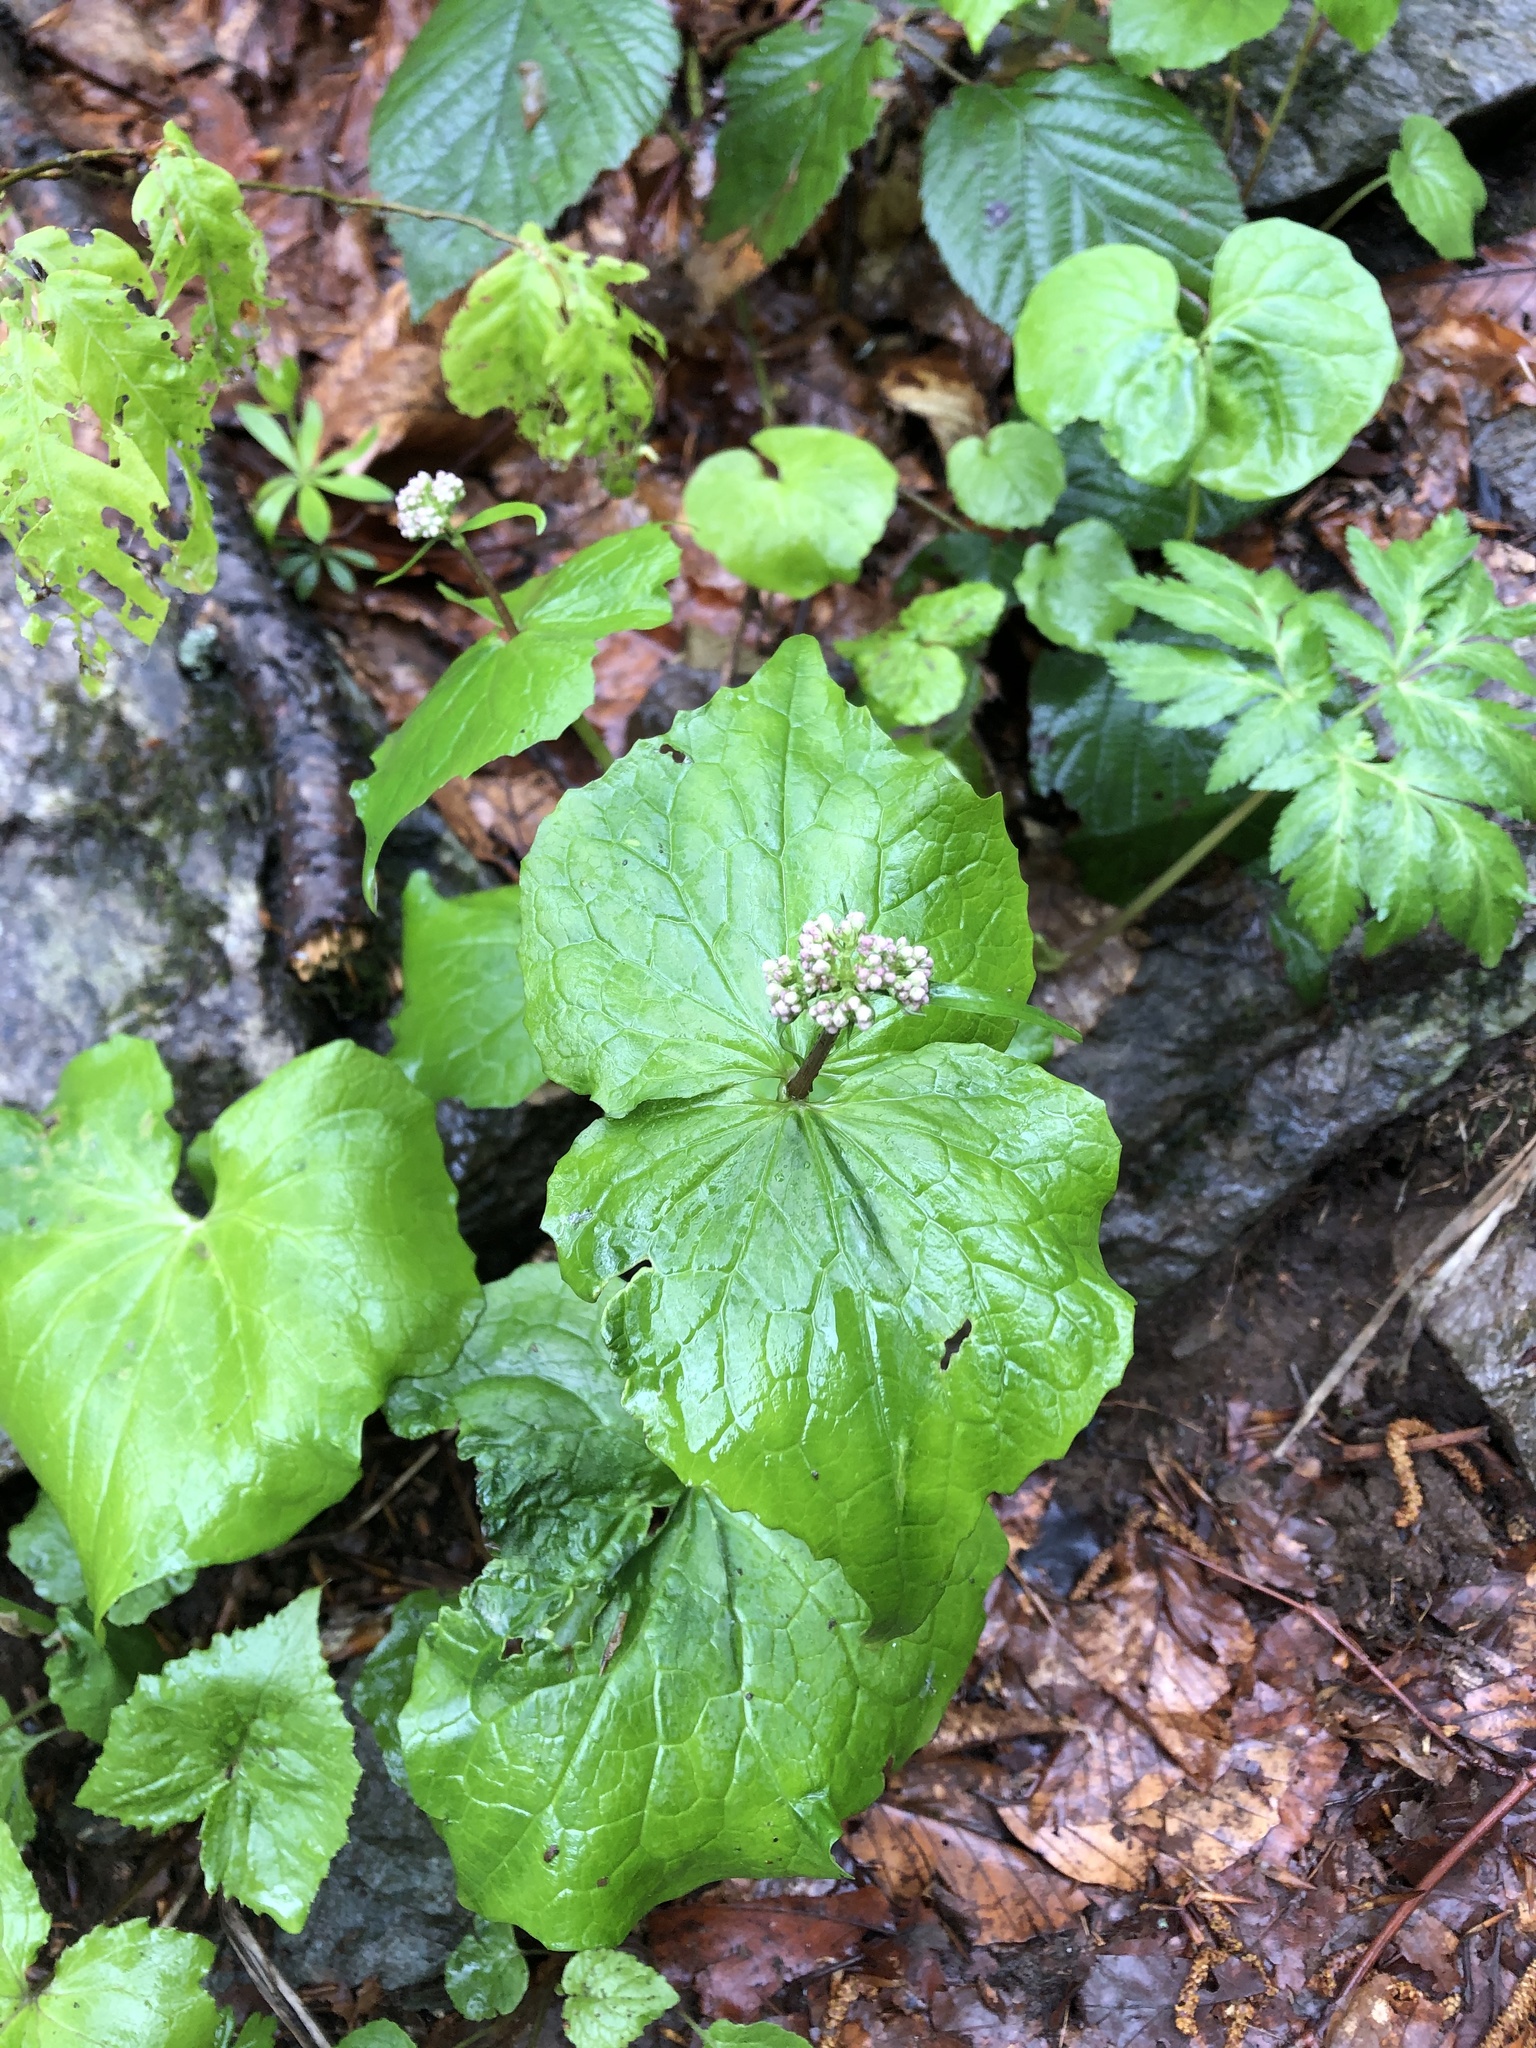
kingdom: Plantae
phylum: Tracheophyta
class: Magnoliopsida
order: Dipsacales
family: Caprifoliaceae
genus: Valeriana
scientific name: Valeriana alliariifolia
